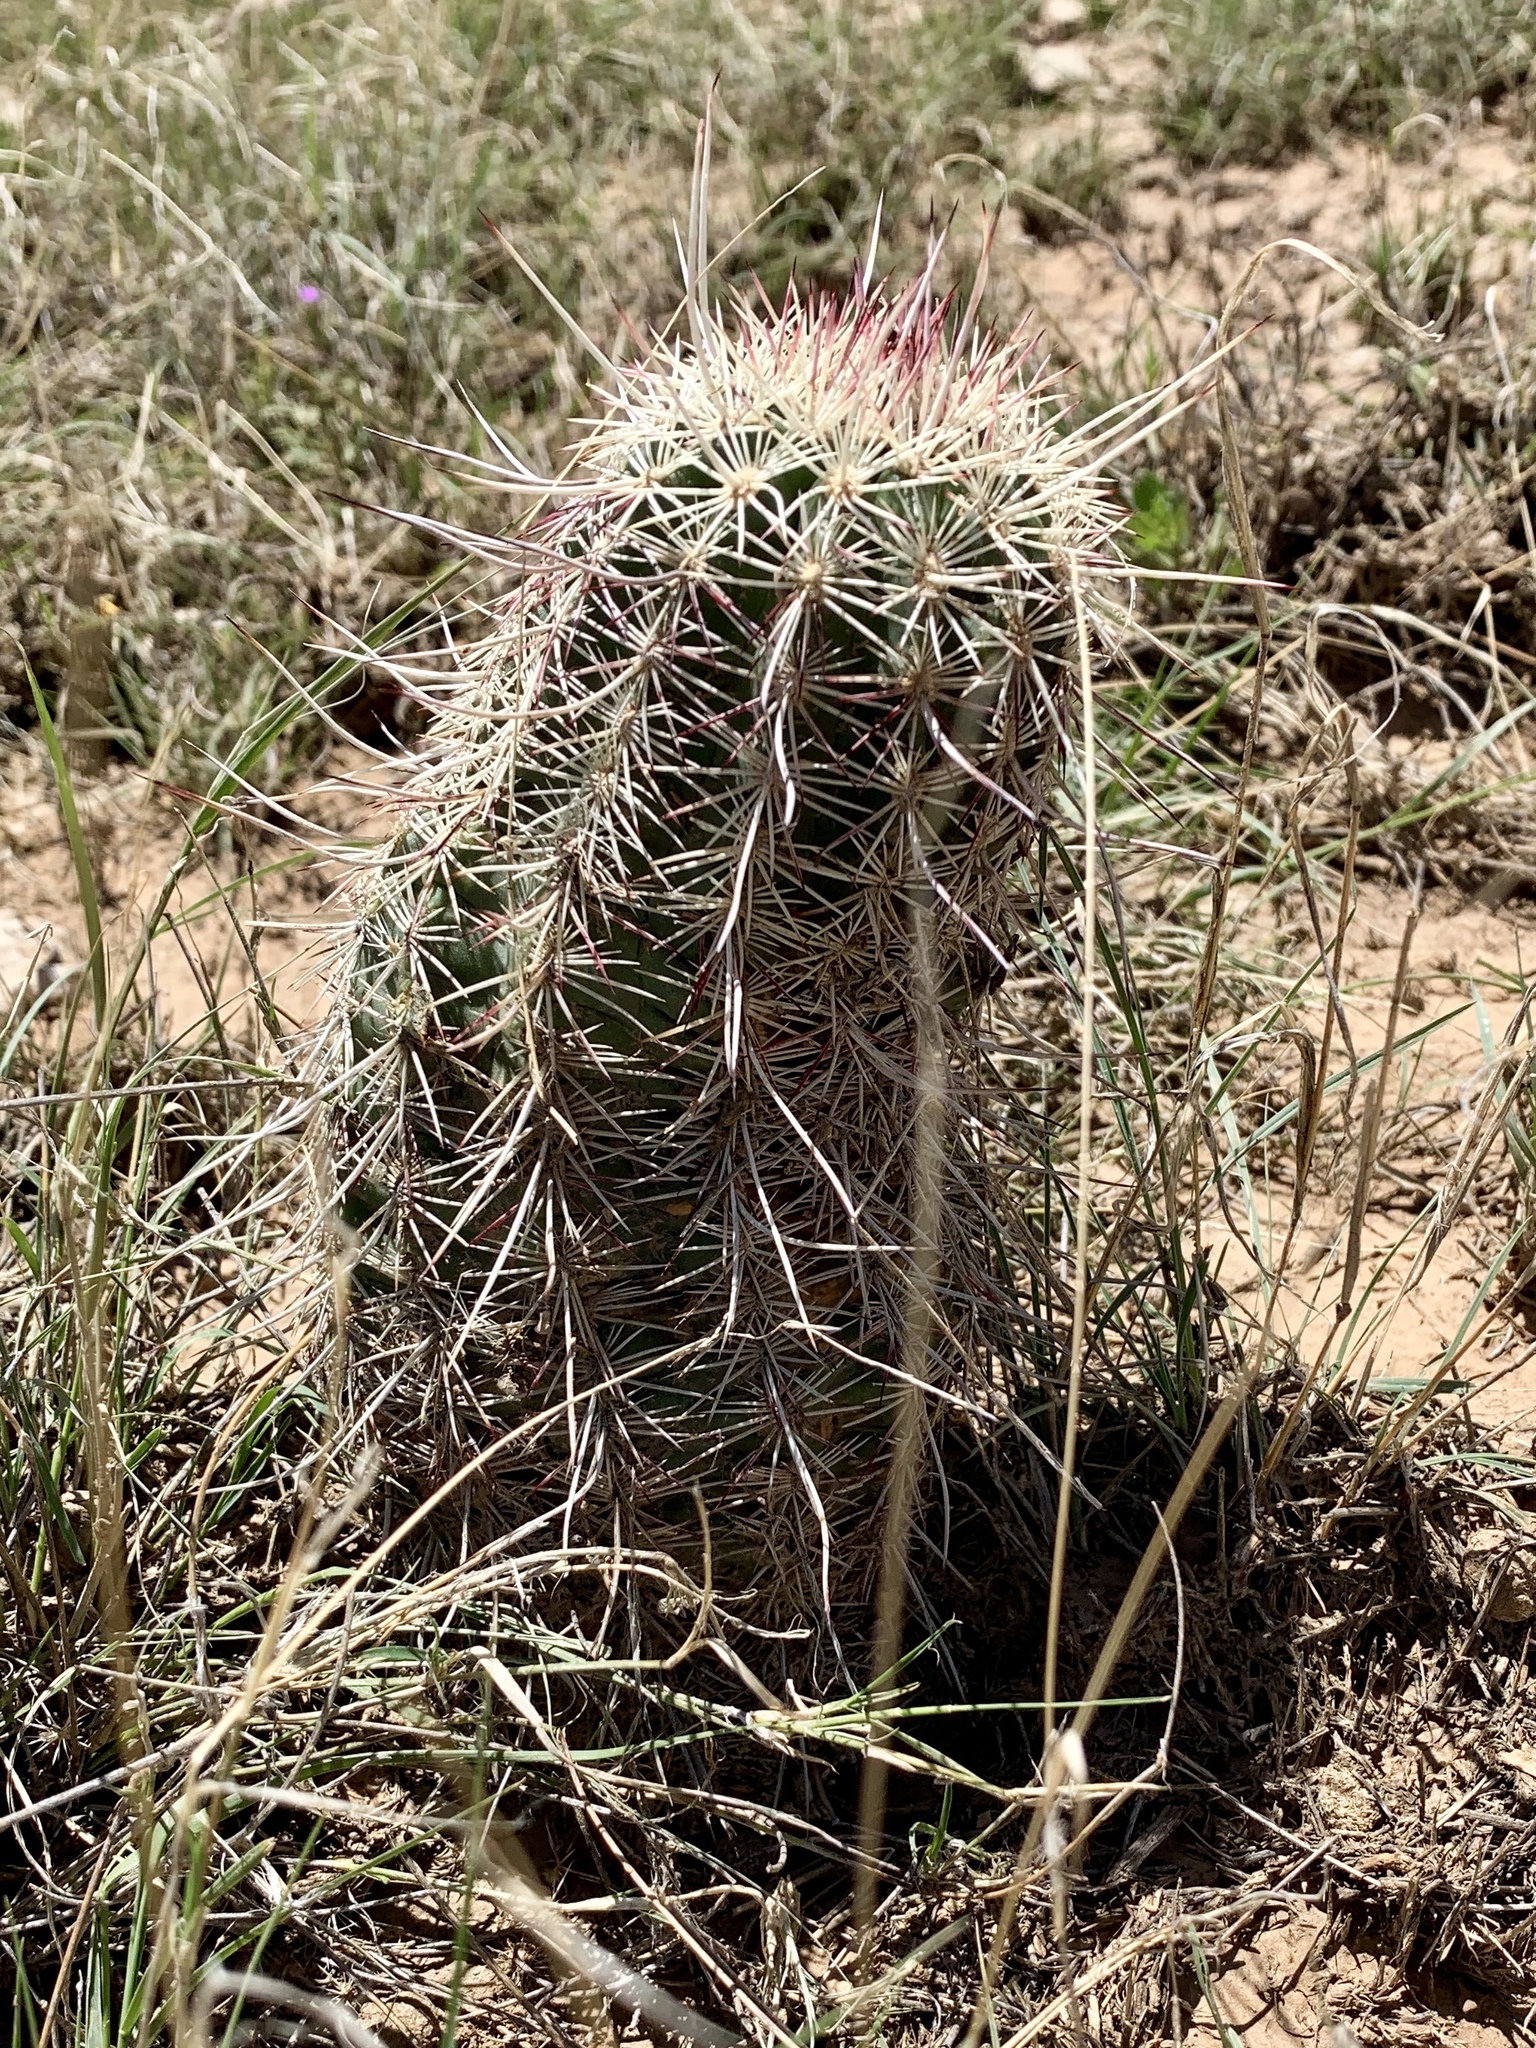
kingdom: Plantae
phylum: Tracheophyta
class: Magnoliopsida
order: Caryophyllales
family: Cactaceae
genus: Echinocereus
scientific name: Echinocereus viridiflorus
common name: Nylon hedgehog cactus
